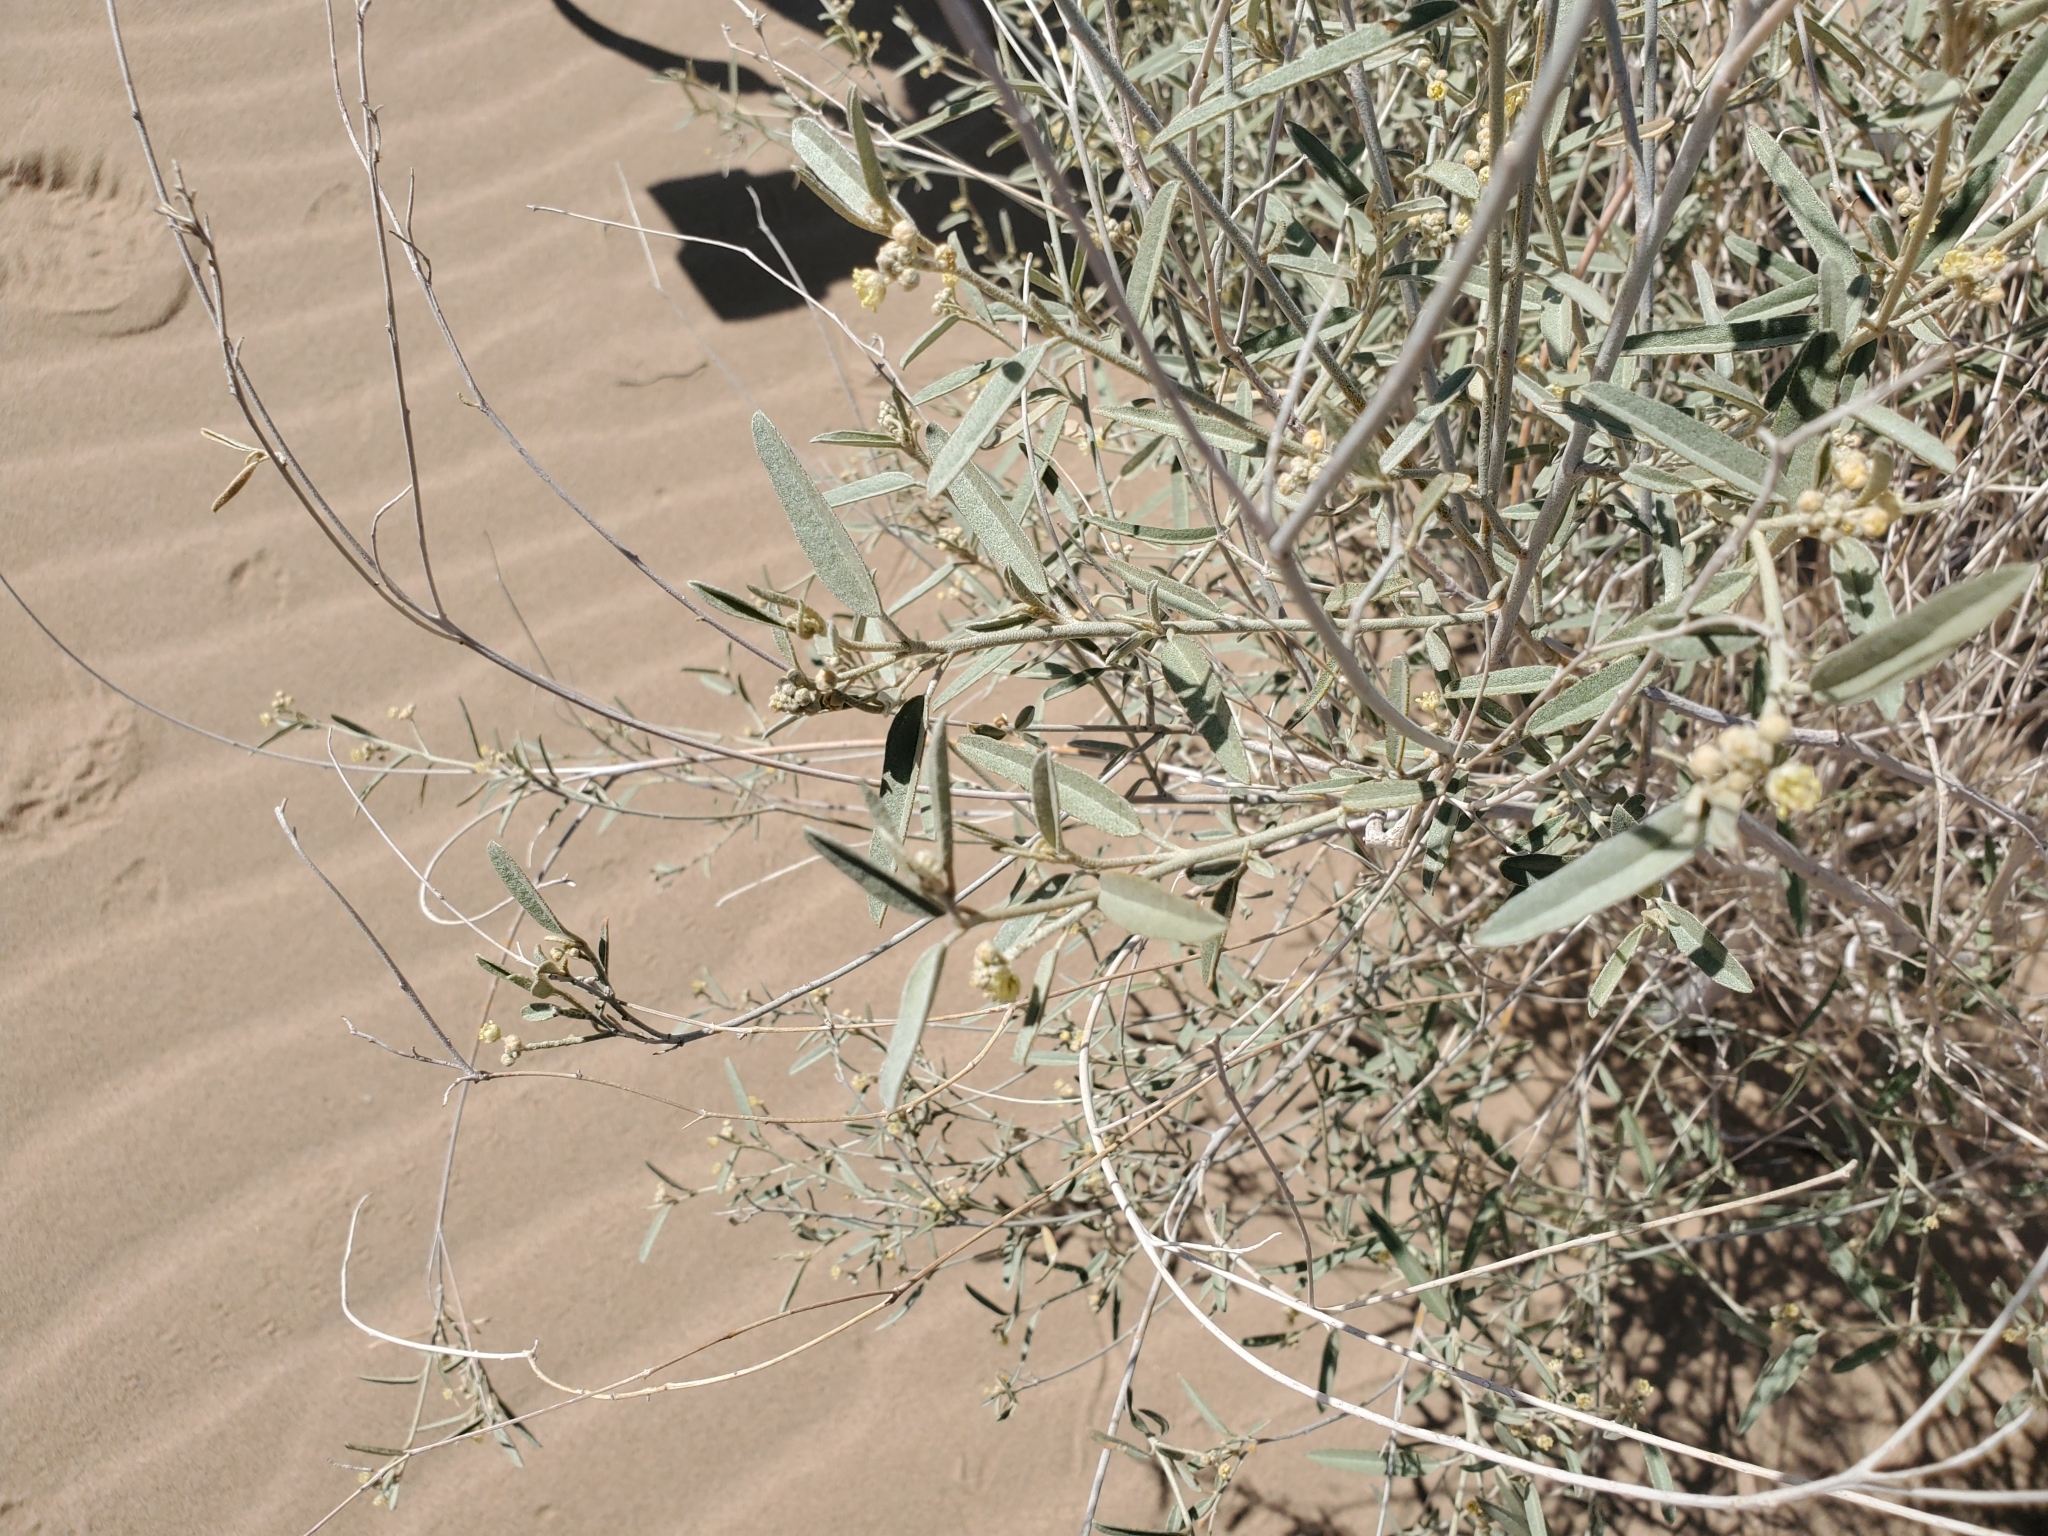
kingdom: Plantae
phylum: Tracheophyta
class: Magnoliopsida
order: Malpighiales
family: Euphorbiaceae
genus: Croton
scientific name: Croton wigginsii
